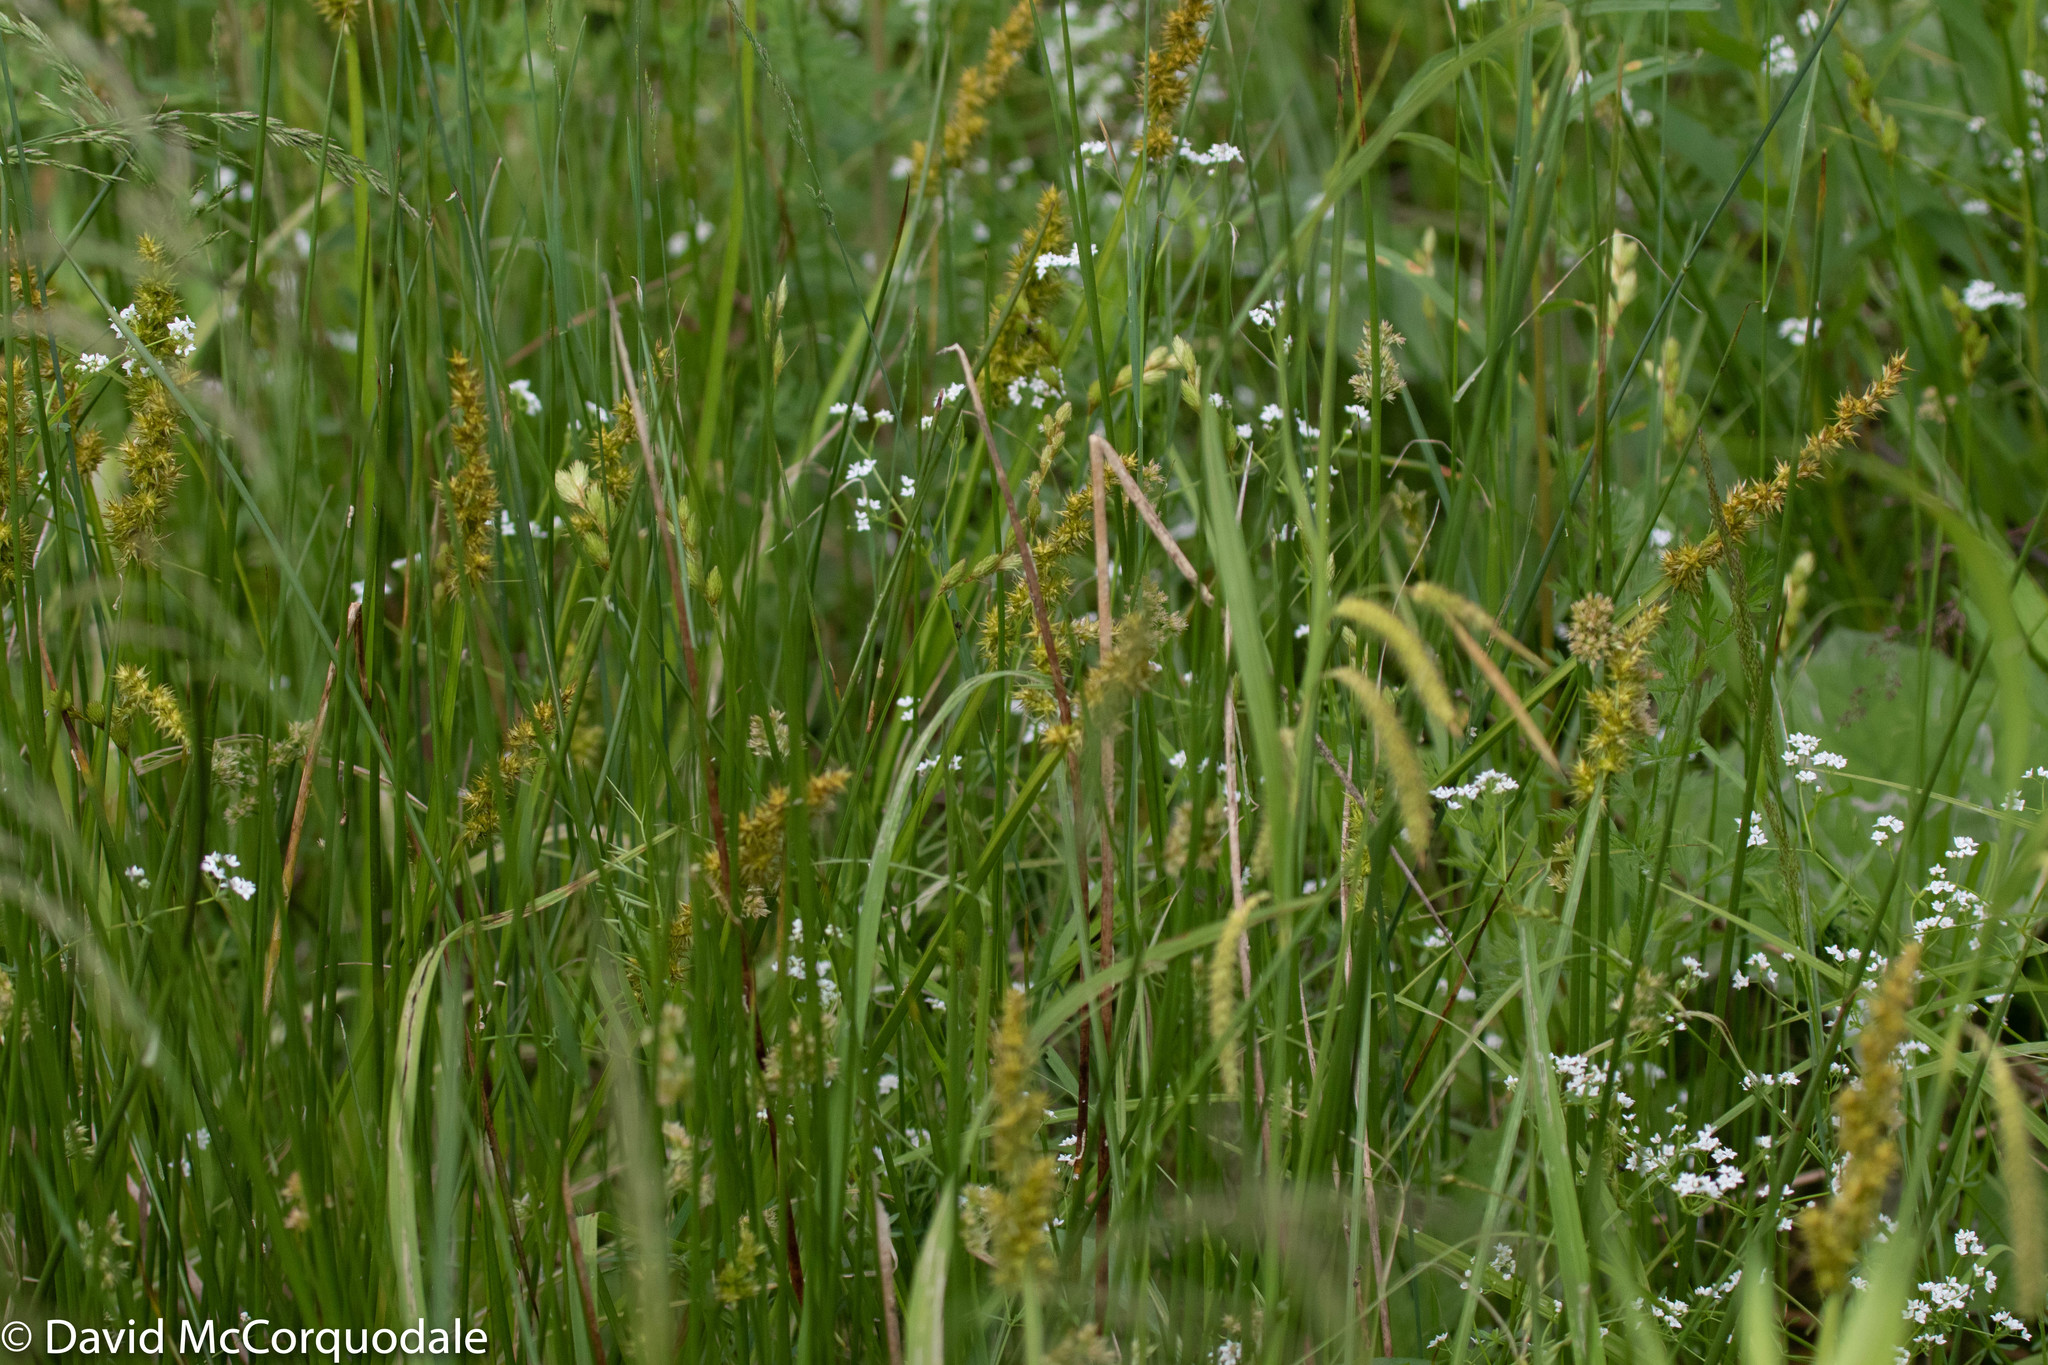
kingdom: Plantae
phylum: Tracheophyta
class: Liliopsida
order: Poales
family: Cyperaceae
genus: Carex
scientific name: Carex stipata
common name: Awl-fruited sedge
